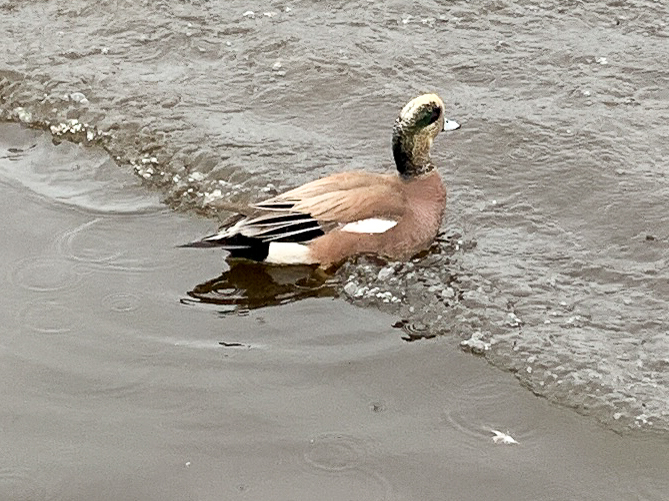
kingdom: Animalia
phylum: Chordata
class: Aves
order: Anseriformes
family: Anatidae
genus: Mareca
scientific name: Mareca americana
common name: American wigeon
